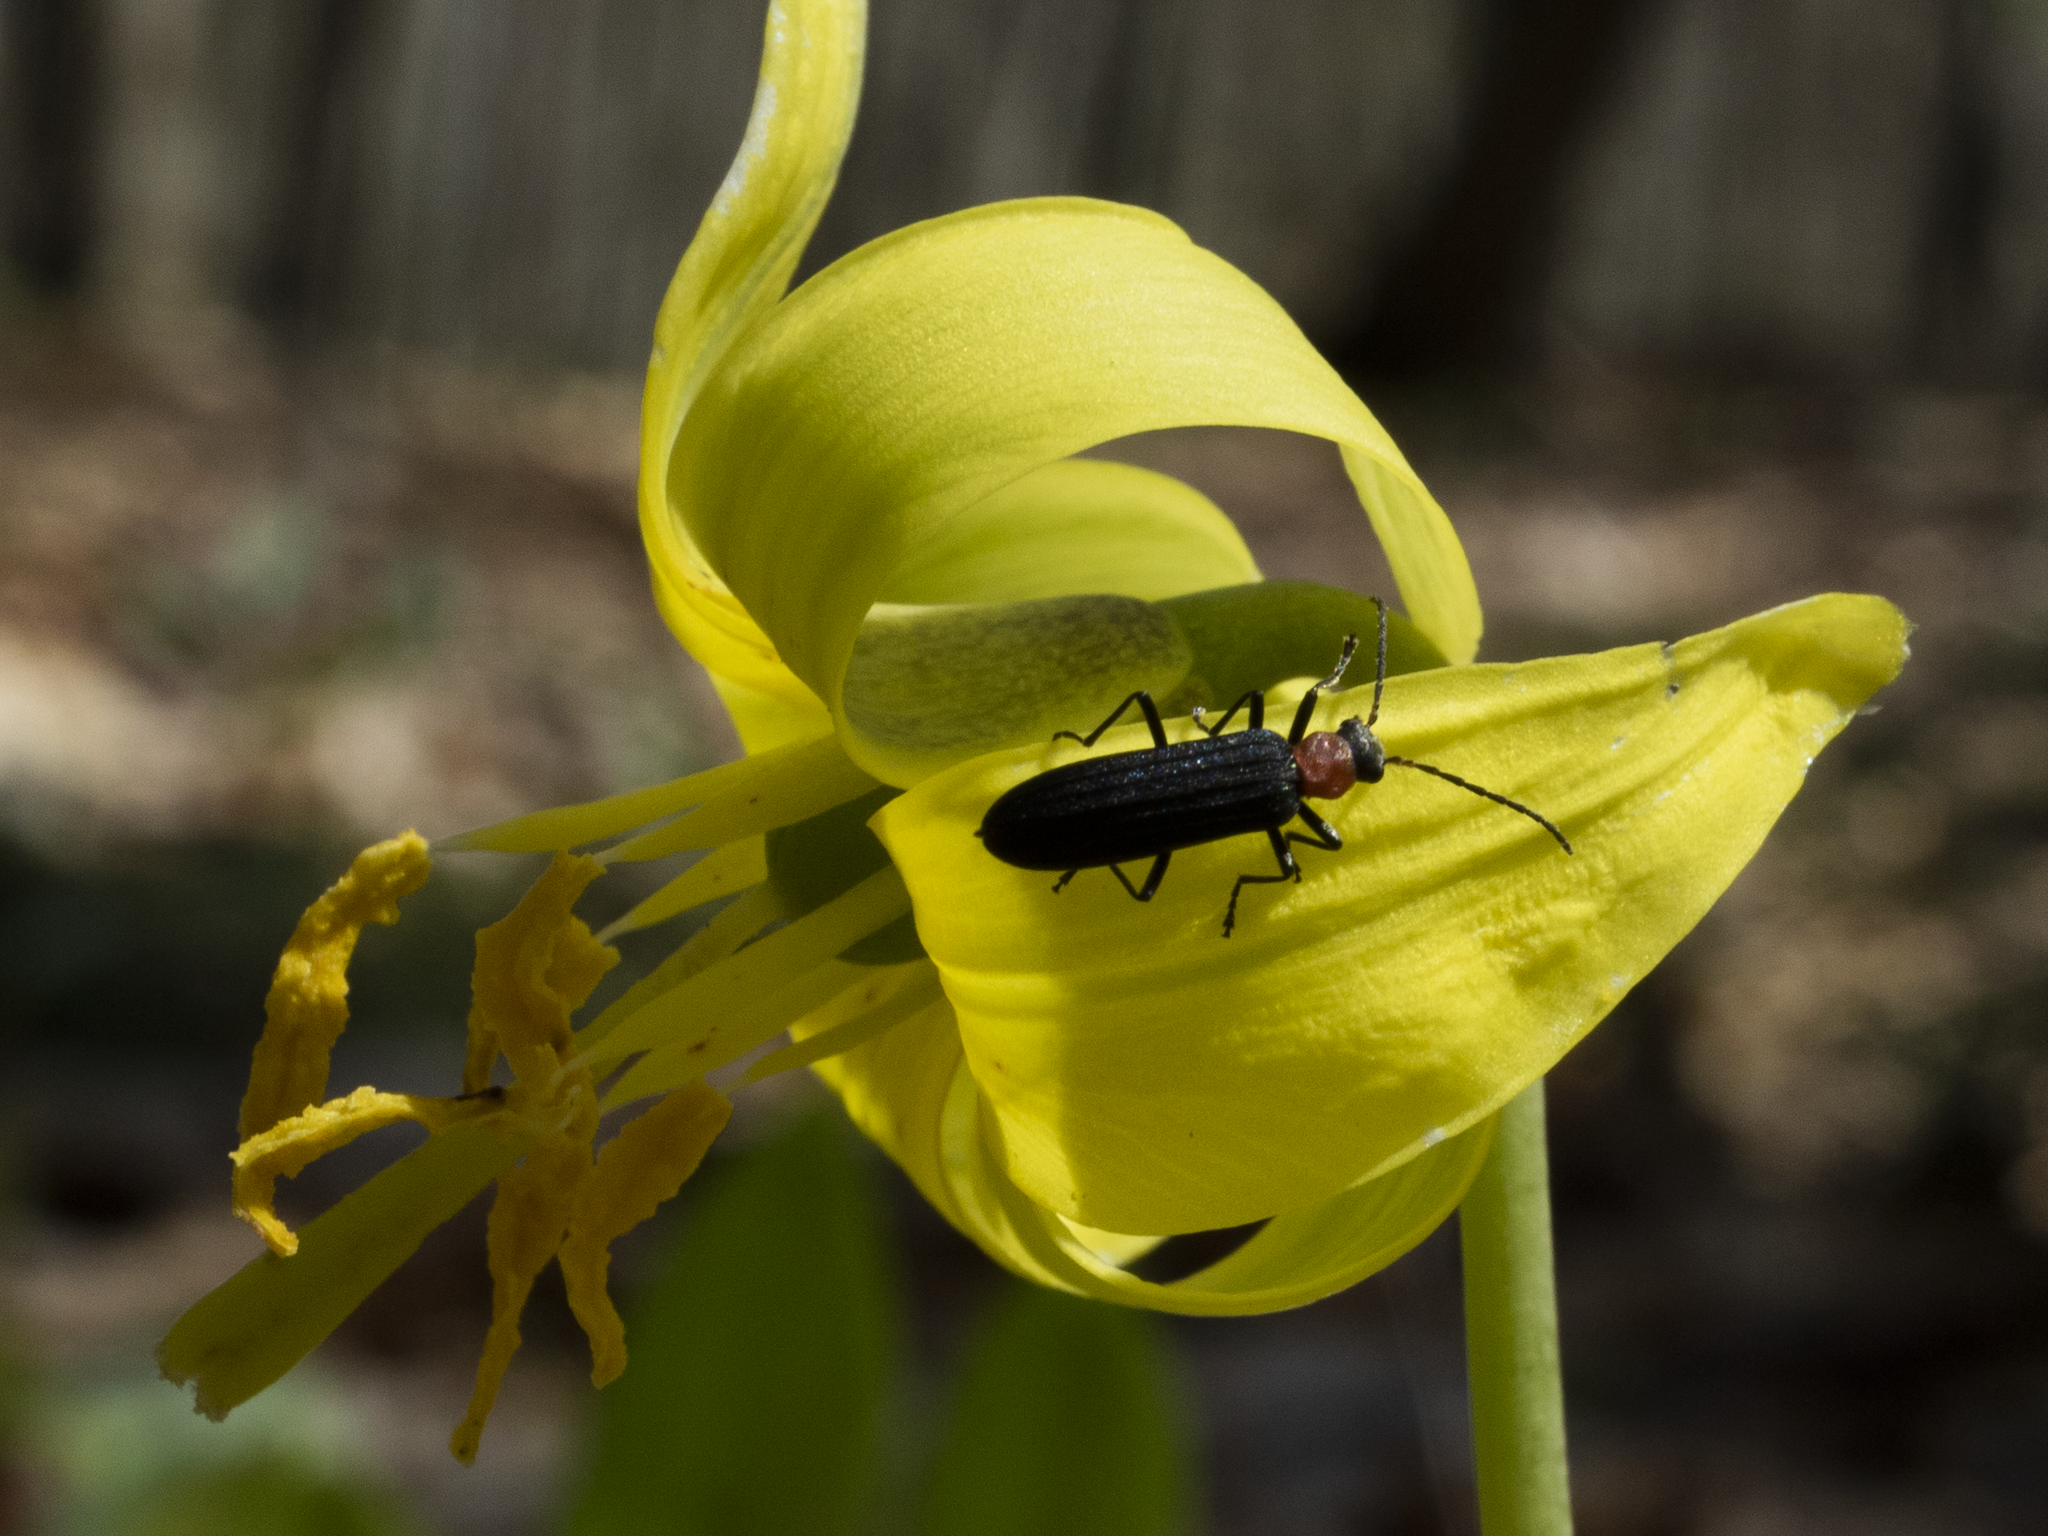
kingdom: Animalia
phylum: Arthropoda
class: Insecta
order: Coleoptera
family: Oedemeridae
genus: Ischnomera
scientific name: Ischnomera
